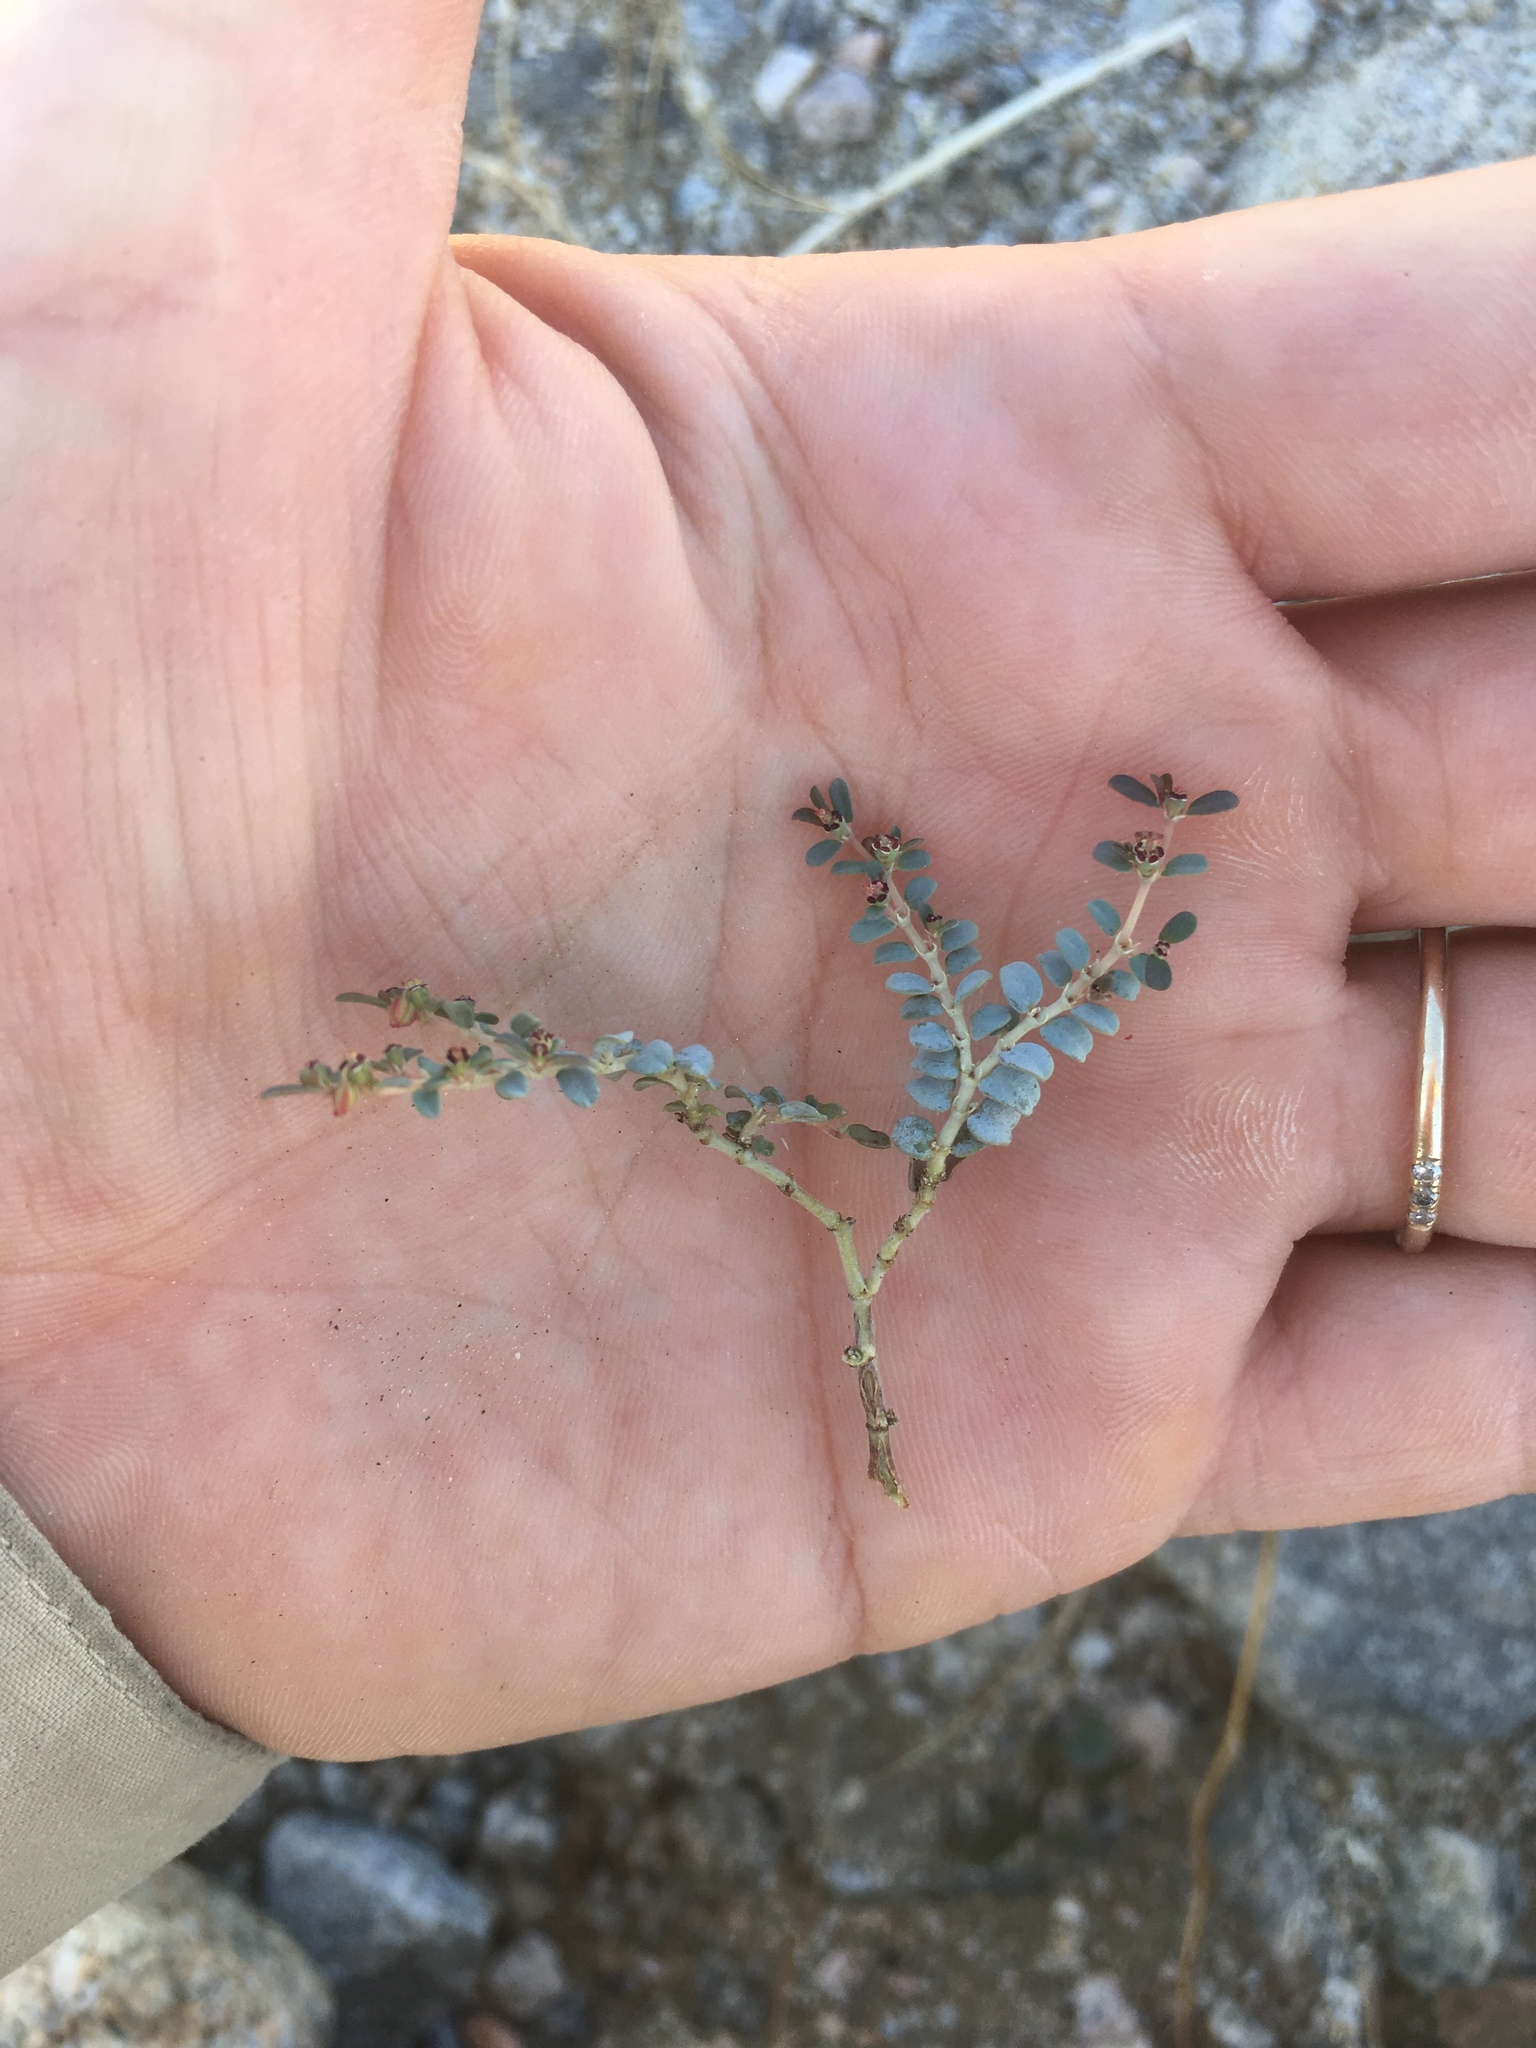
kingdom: Plantae
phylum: Tracheophyta
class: Magnoliopsida
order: Malpighiales
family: Euphorbiaceae
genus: Euphorbia
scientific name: Euphorbia polycarpa
